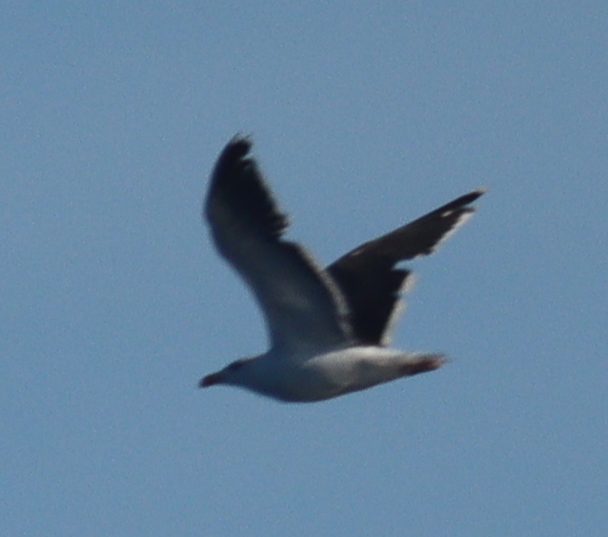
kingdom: Animalia
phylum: Chordata
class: Aves
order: Charadriiformes
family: Laridae
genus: Larus
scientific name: Larus marinus
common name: Great black-backed gull
